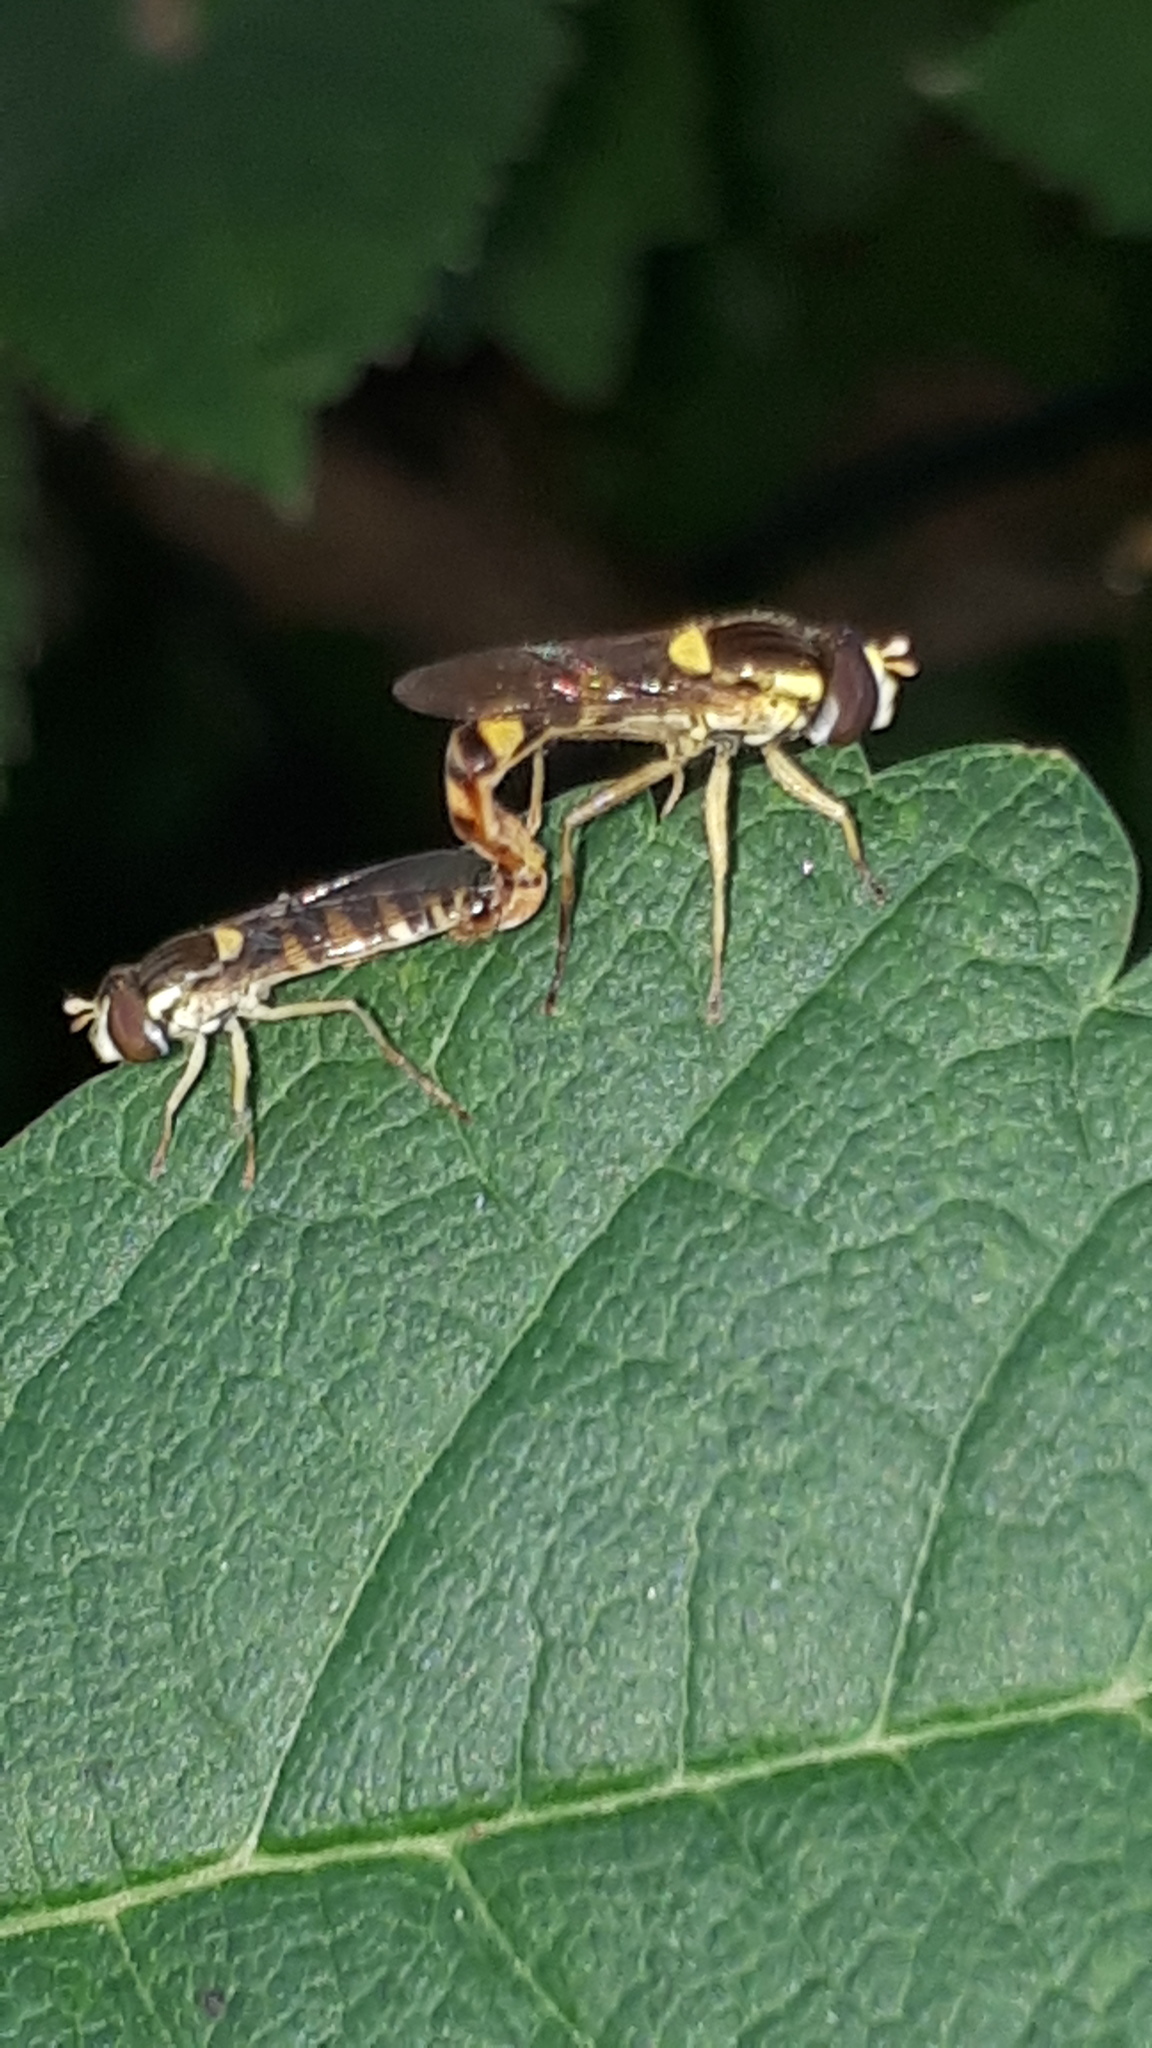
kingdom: Animalia
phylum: Arthropoda
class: Insecta
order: Diptera
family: Syrphidae
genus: Sphaerophoria
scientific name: Sphaerophoria scripta
